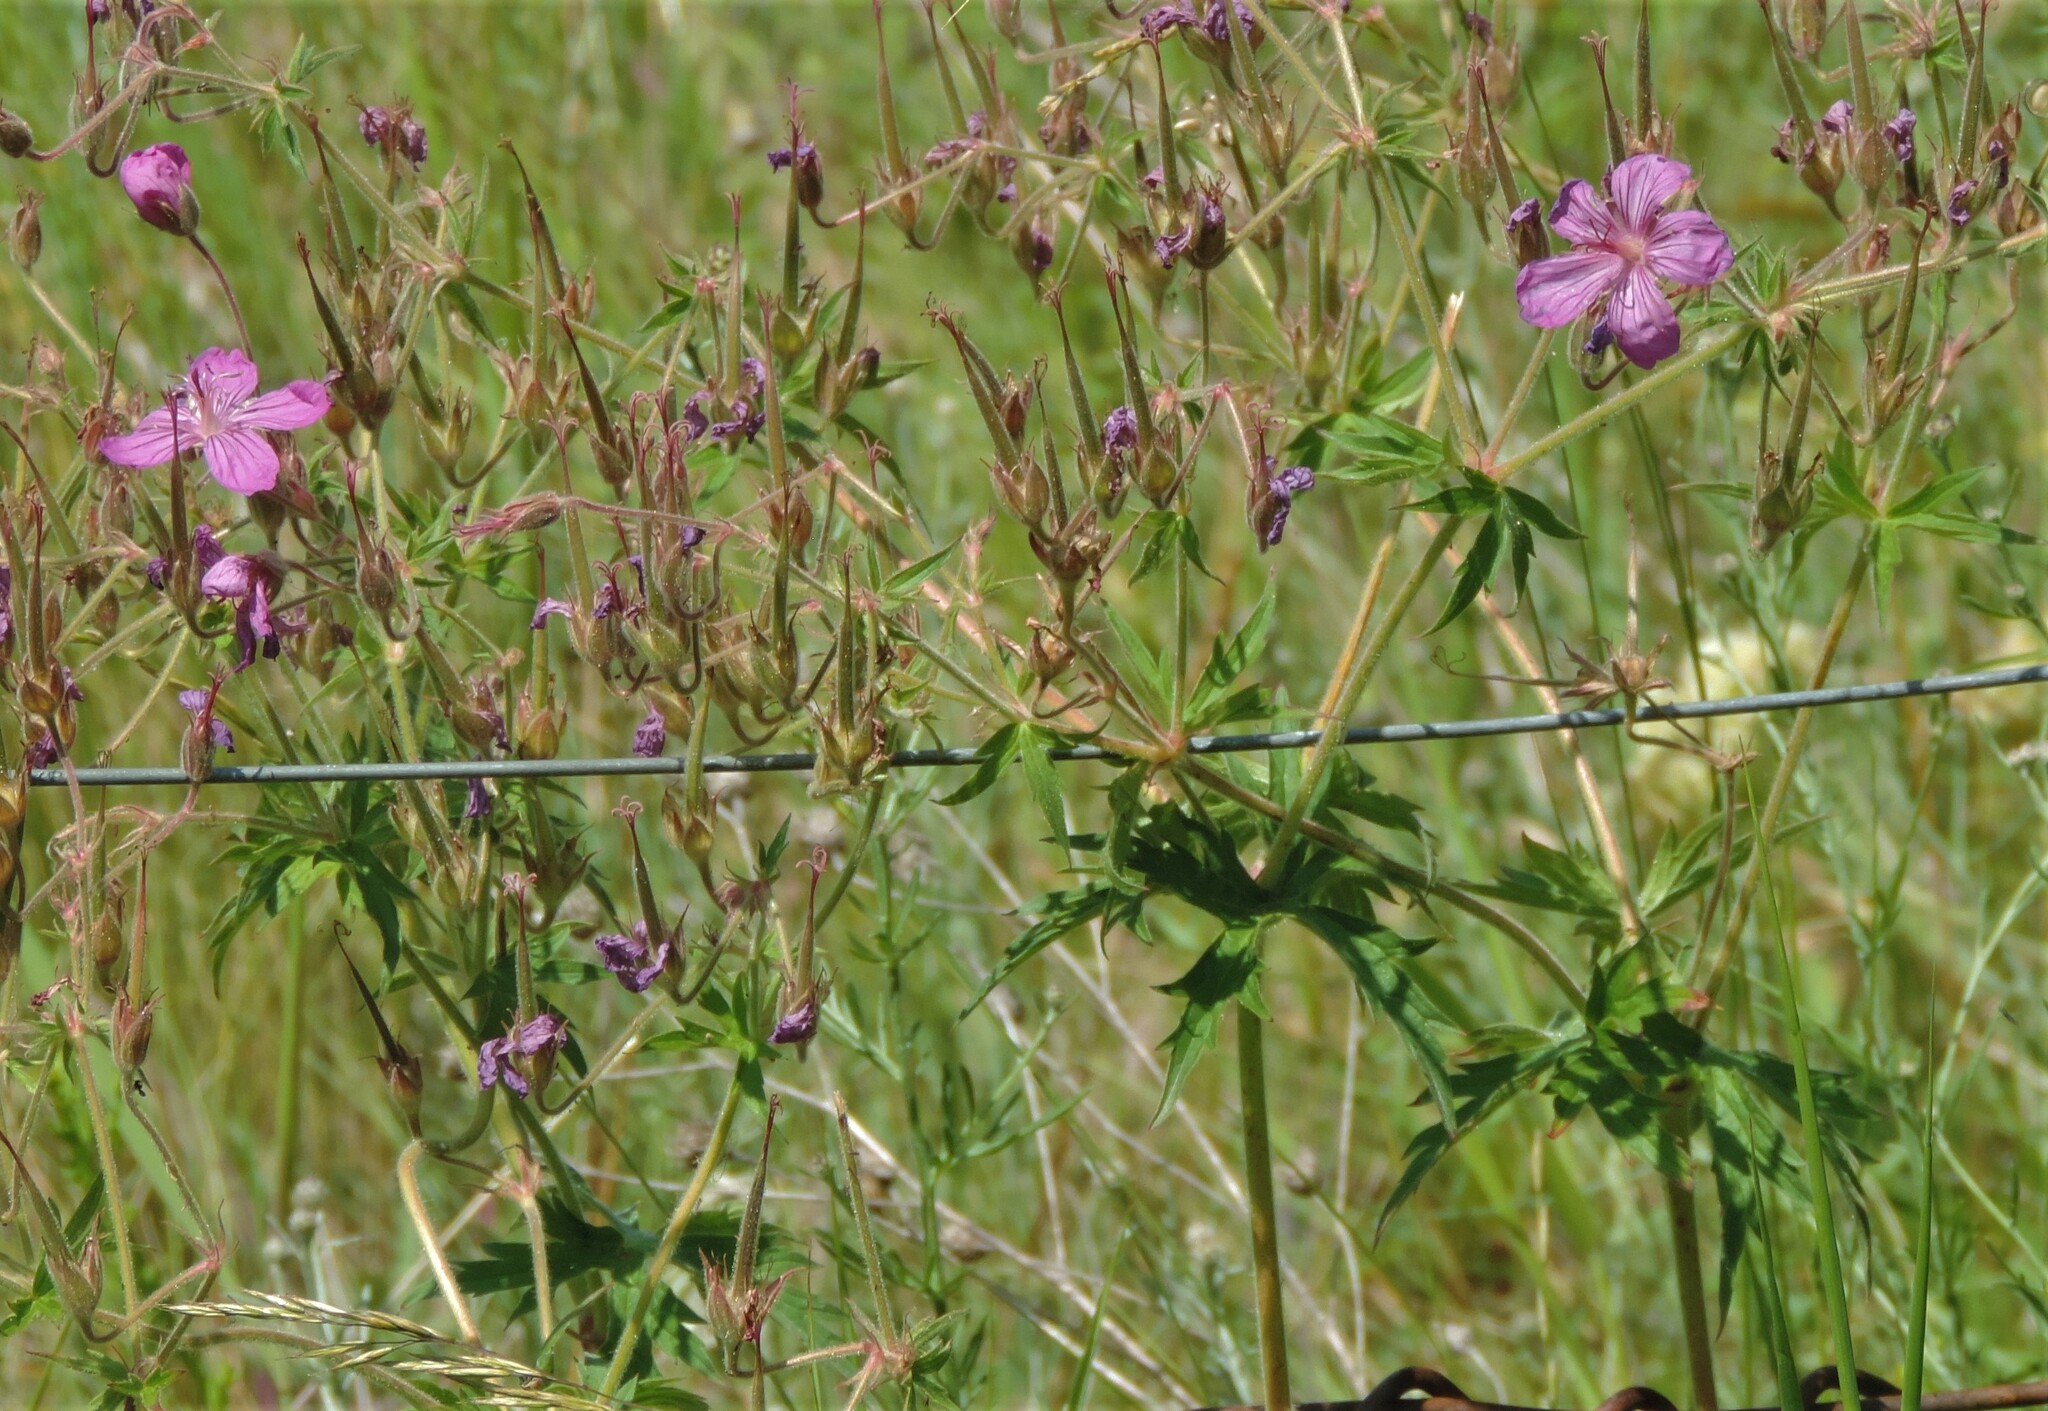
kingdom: Plantae
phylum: Tracheophyta
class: Magnoliopsida
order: Geraniales
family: Geraniaceae
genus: Geranium
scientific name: Geranium viscosissimum
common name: Purple geranium
